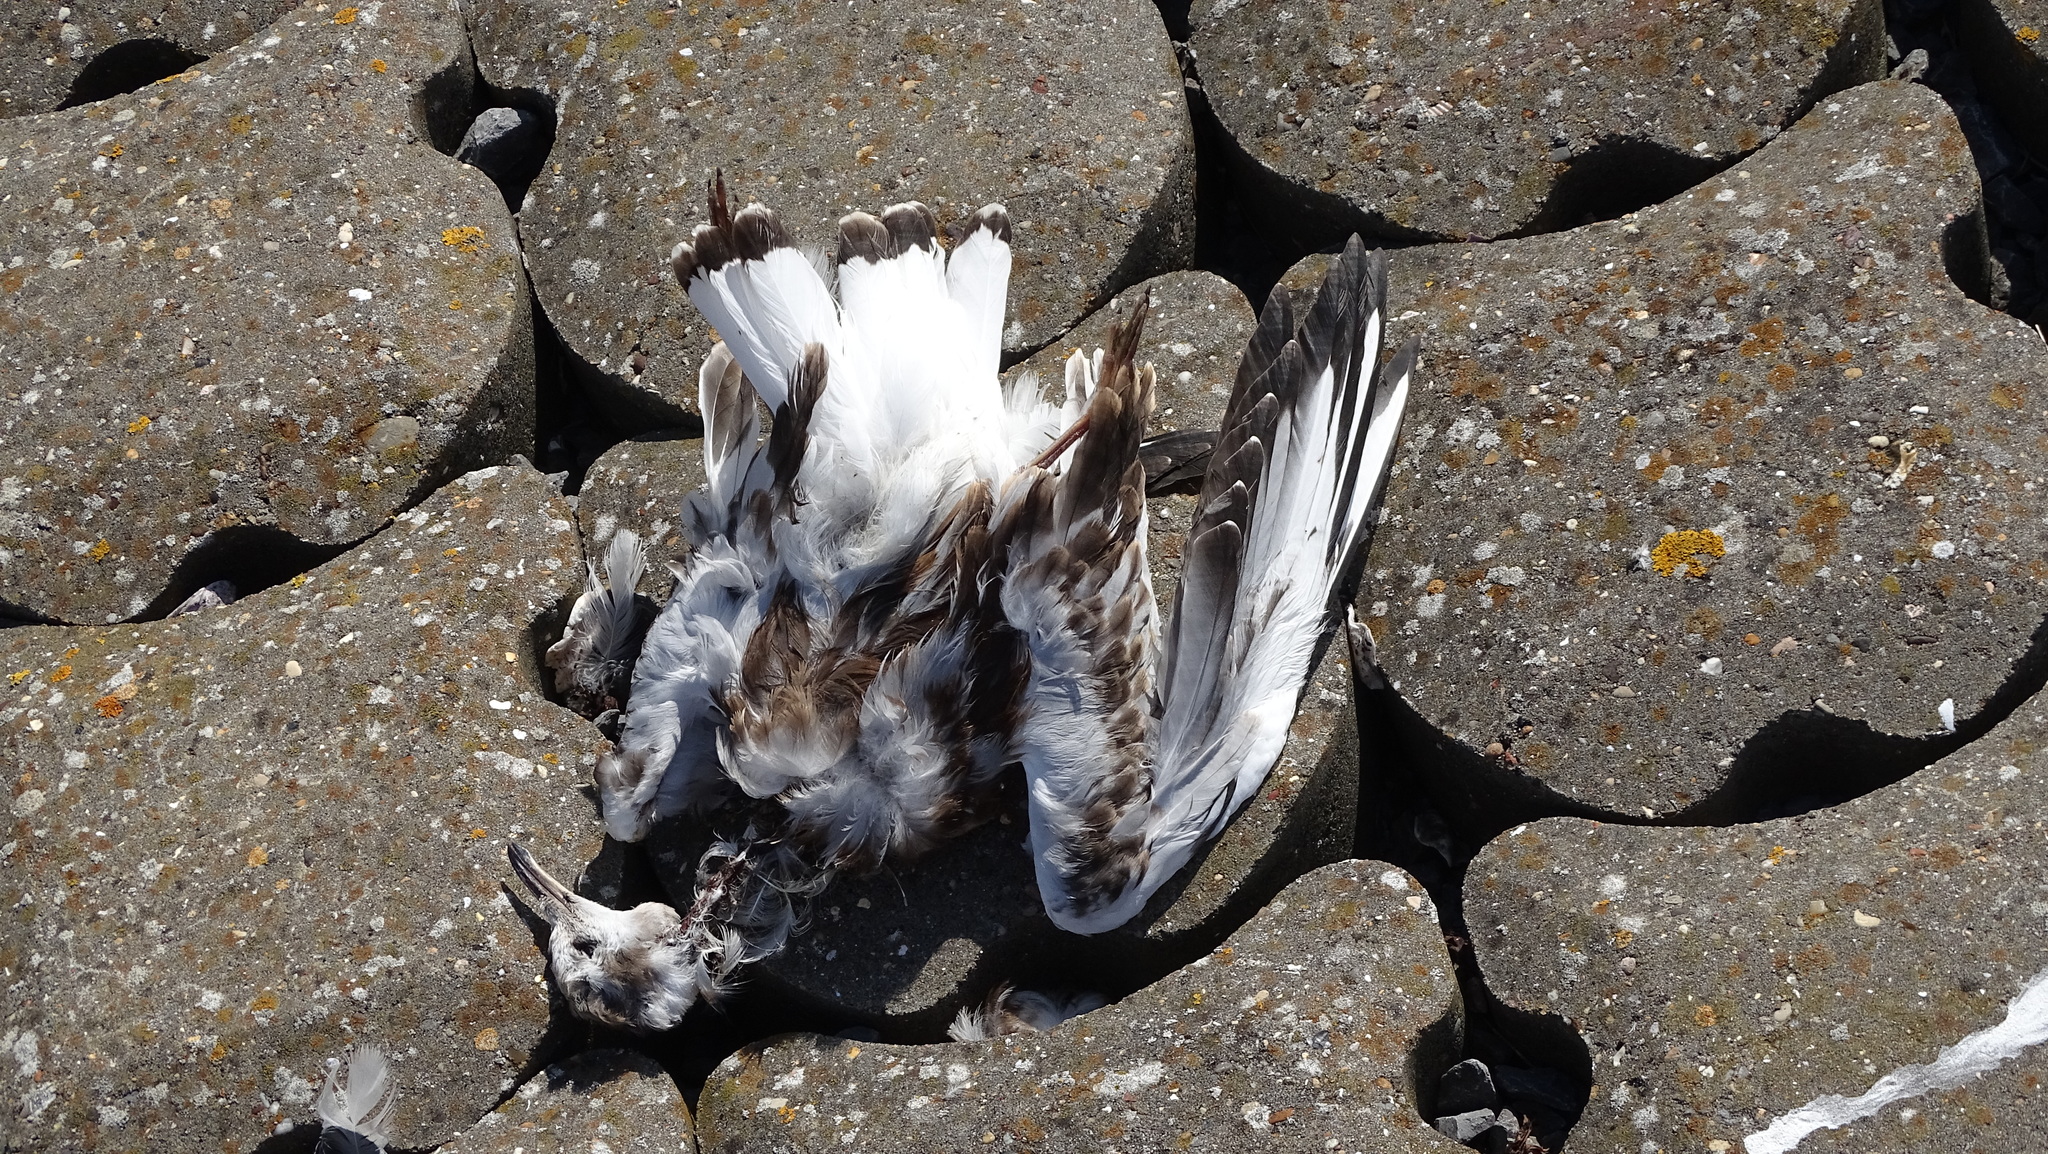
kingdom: Animalia
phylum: Chordata
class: Aves
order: Charadriiformes
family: Laridae
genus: Chroicocephalus
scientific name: Chroicocephalus ridibundus
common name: Black-headed gull
